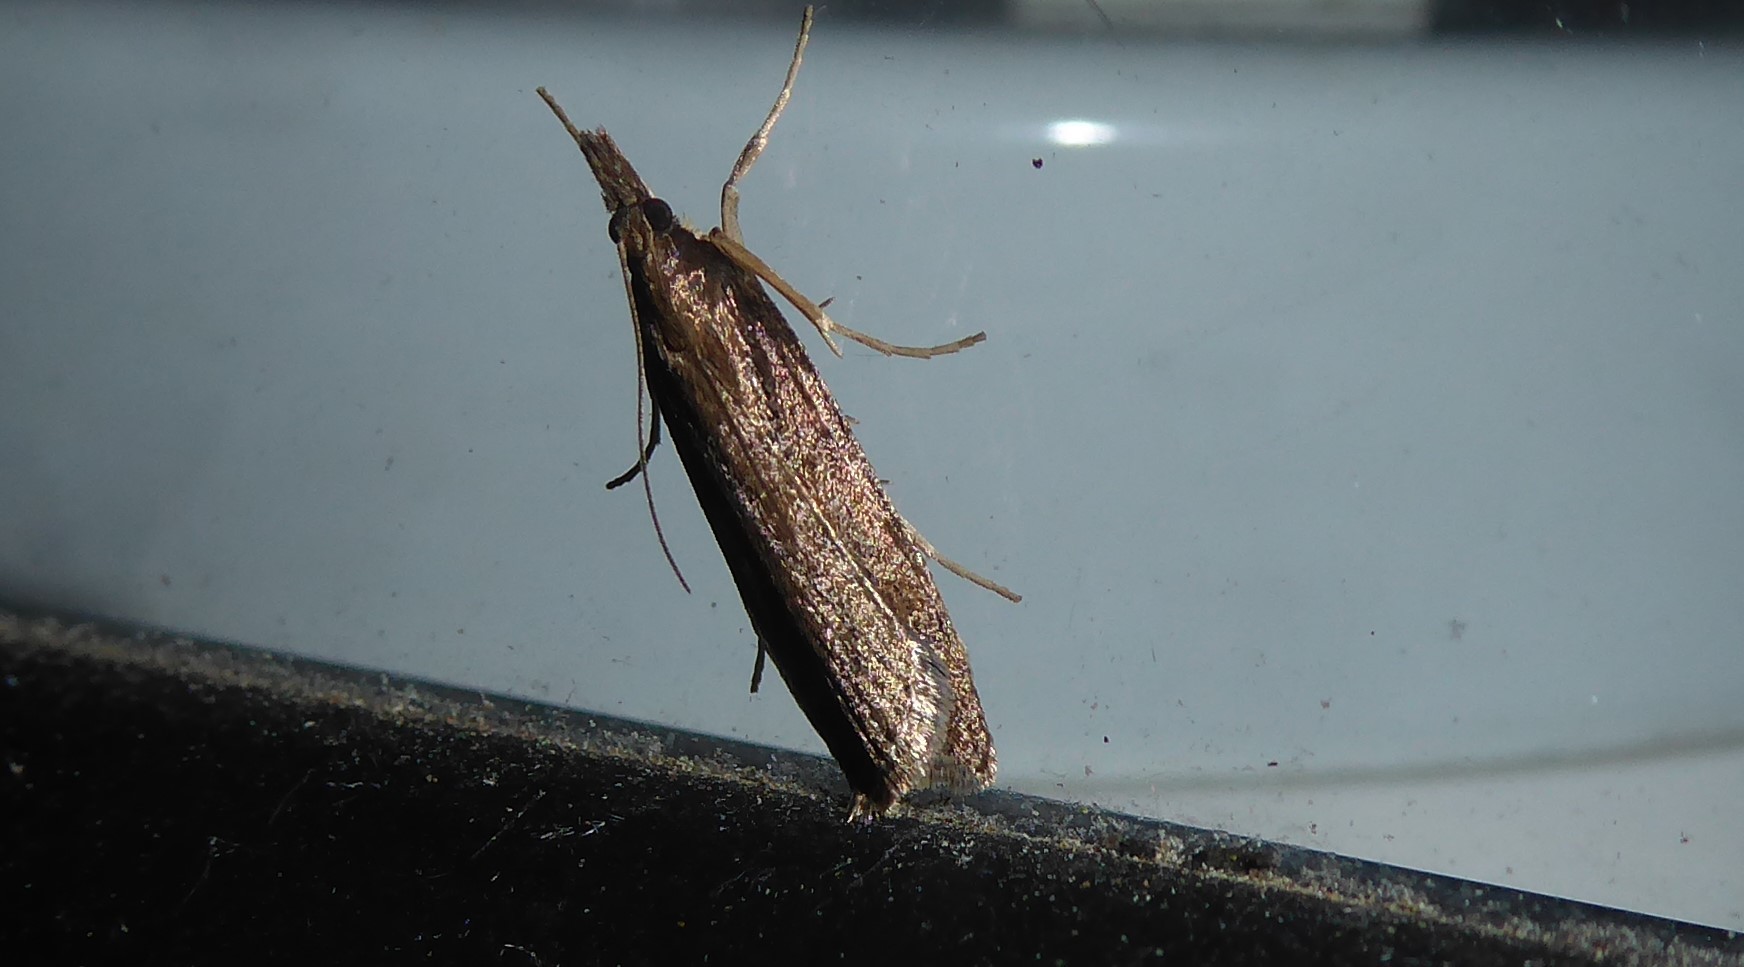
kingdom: Animalia
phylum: Arthropoda
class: Insecta
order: Lepidoptera
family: Crambidae
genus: Eudonia
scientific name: Eudonia leptalea
